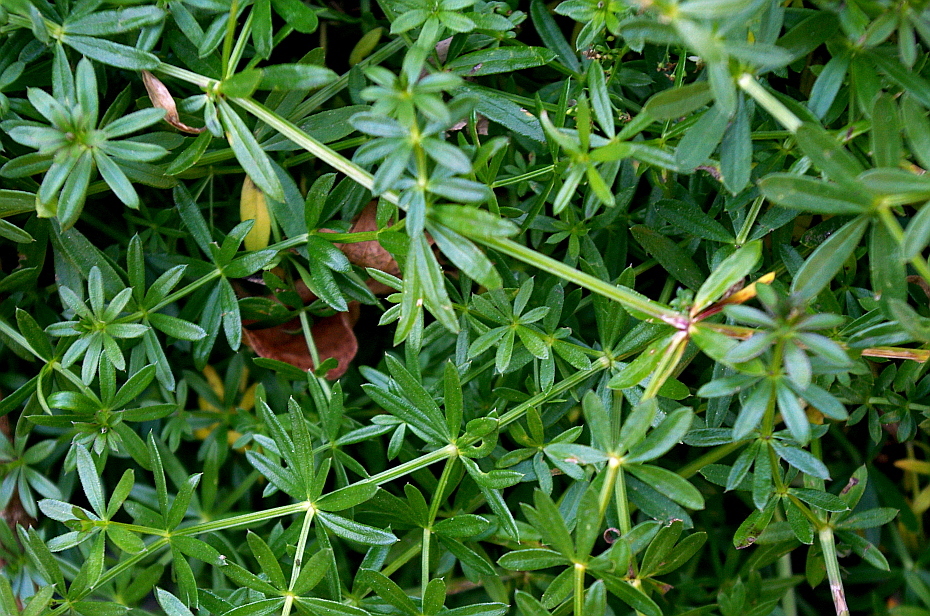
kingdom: Plantae
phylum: Tracheophyta
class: Magnoliopsida
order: Gentianales
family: Rubiaceae
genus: Galium
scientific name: Galium mollugo
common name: Hedge bedstraw
